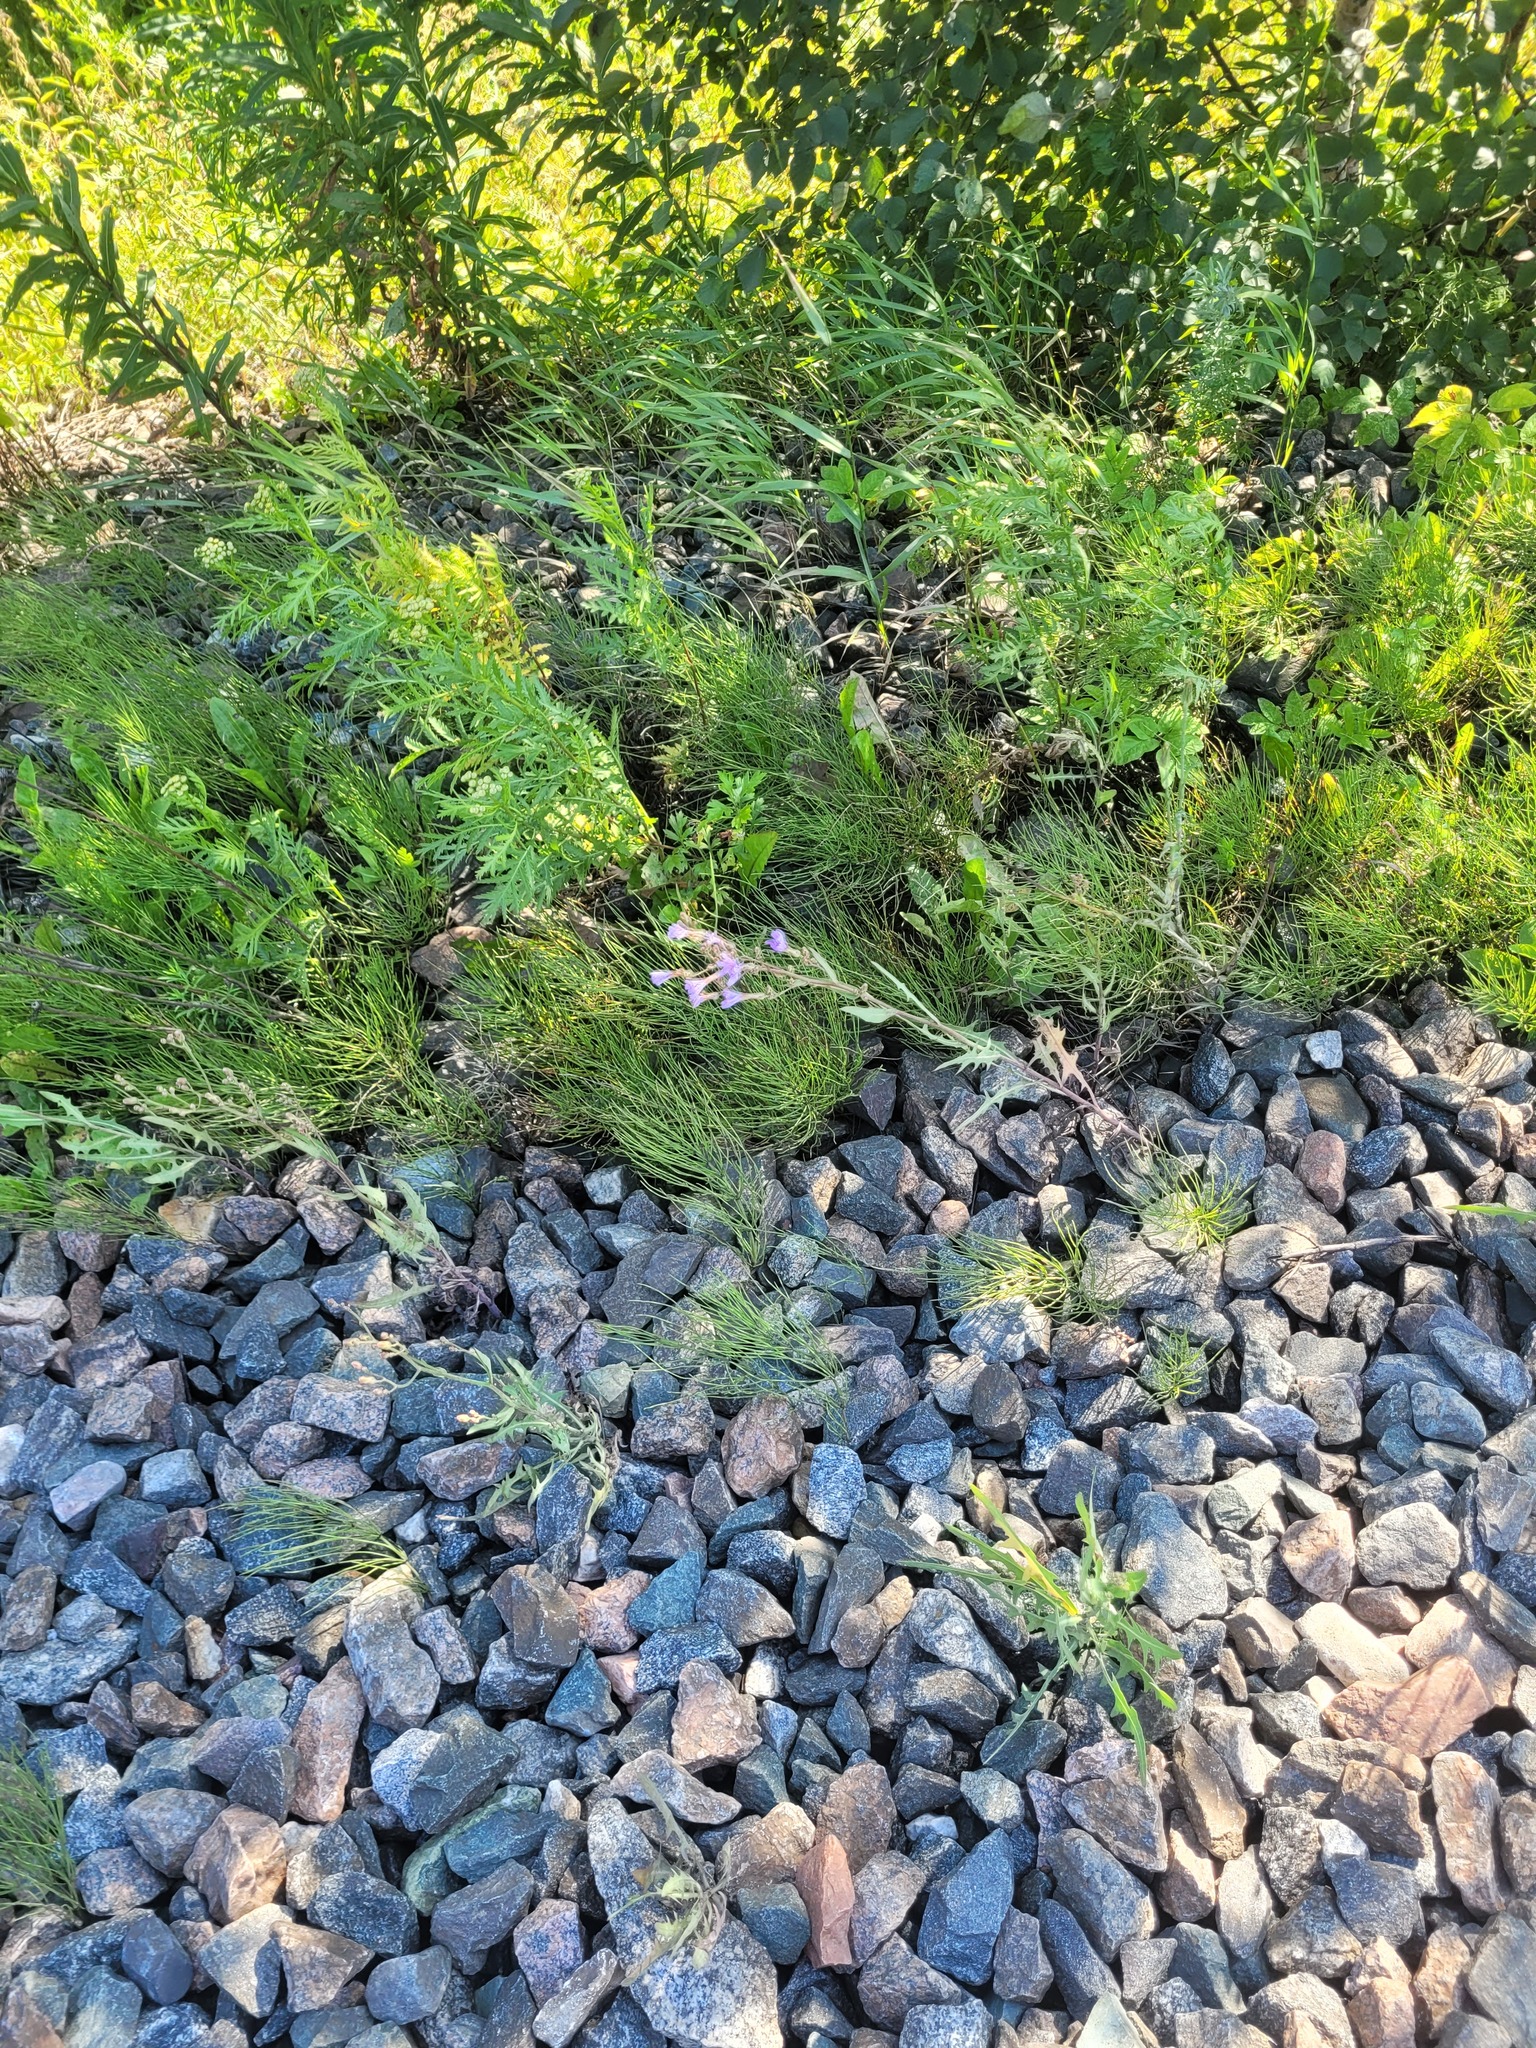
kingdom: Plantae
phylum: Tracheophyta
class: Magnoliopsida
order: Asterales
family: Asteraceae
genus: Lactuca
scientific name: Lactuca tatarica
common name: Blue lettuce
